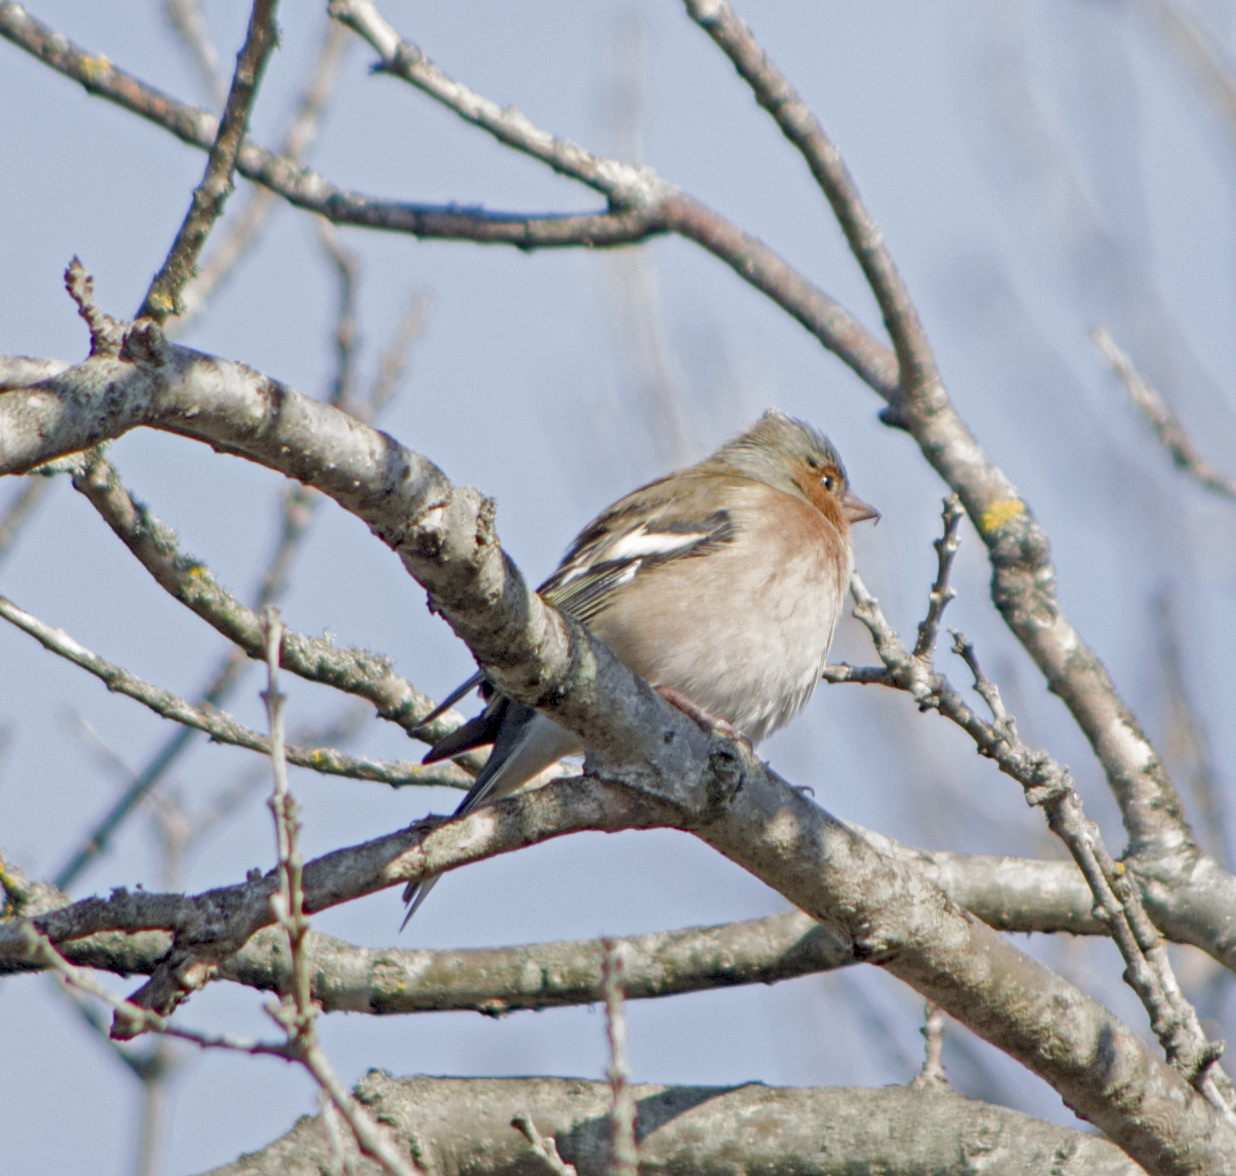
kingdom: Animalia
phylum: Chordata
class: Aves
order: Passeriformes
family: Fringillidae
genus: Fringilla
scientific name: Fringilla coelebs
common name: Common chaffinch
